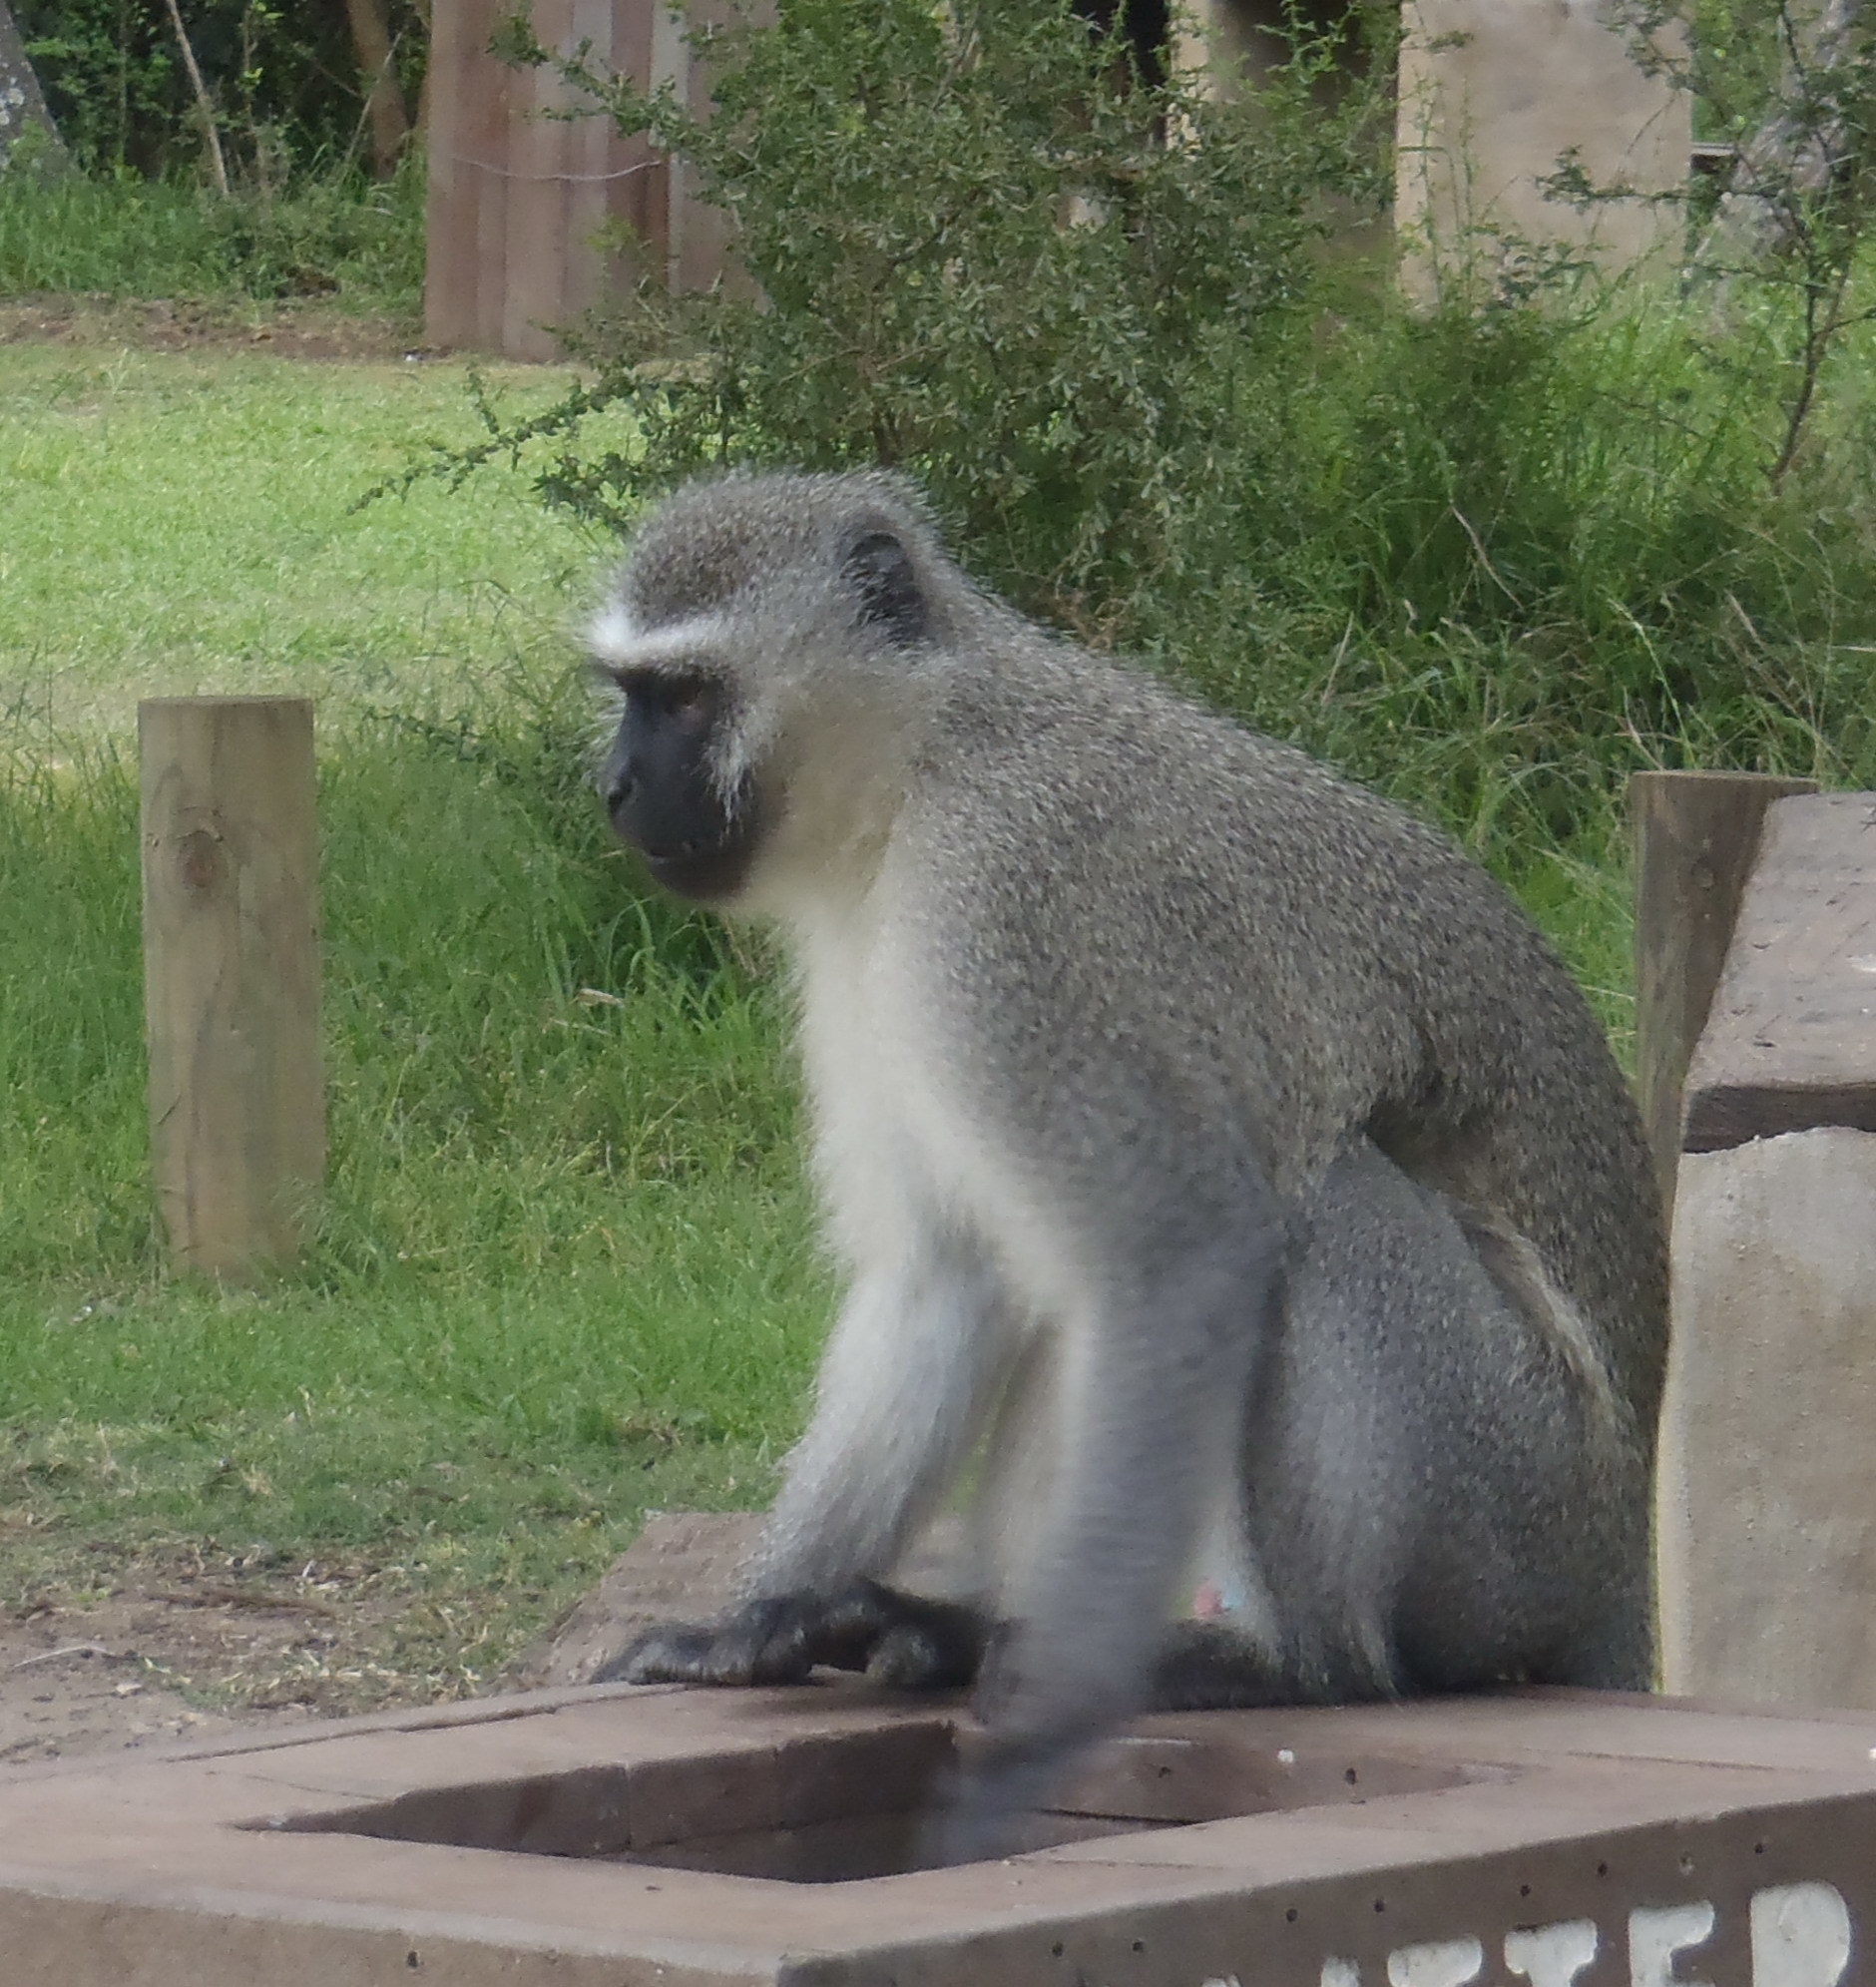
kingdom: Animalia
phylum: Chordata
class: Mammalia
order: Primates
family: Cercopithecidae
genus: Chlorocebus
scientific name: Chlorocebus pygerythrus
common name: Vervet monkey
